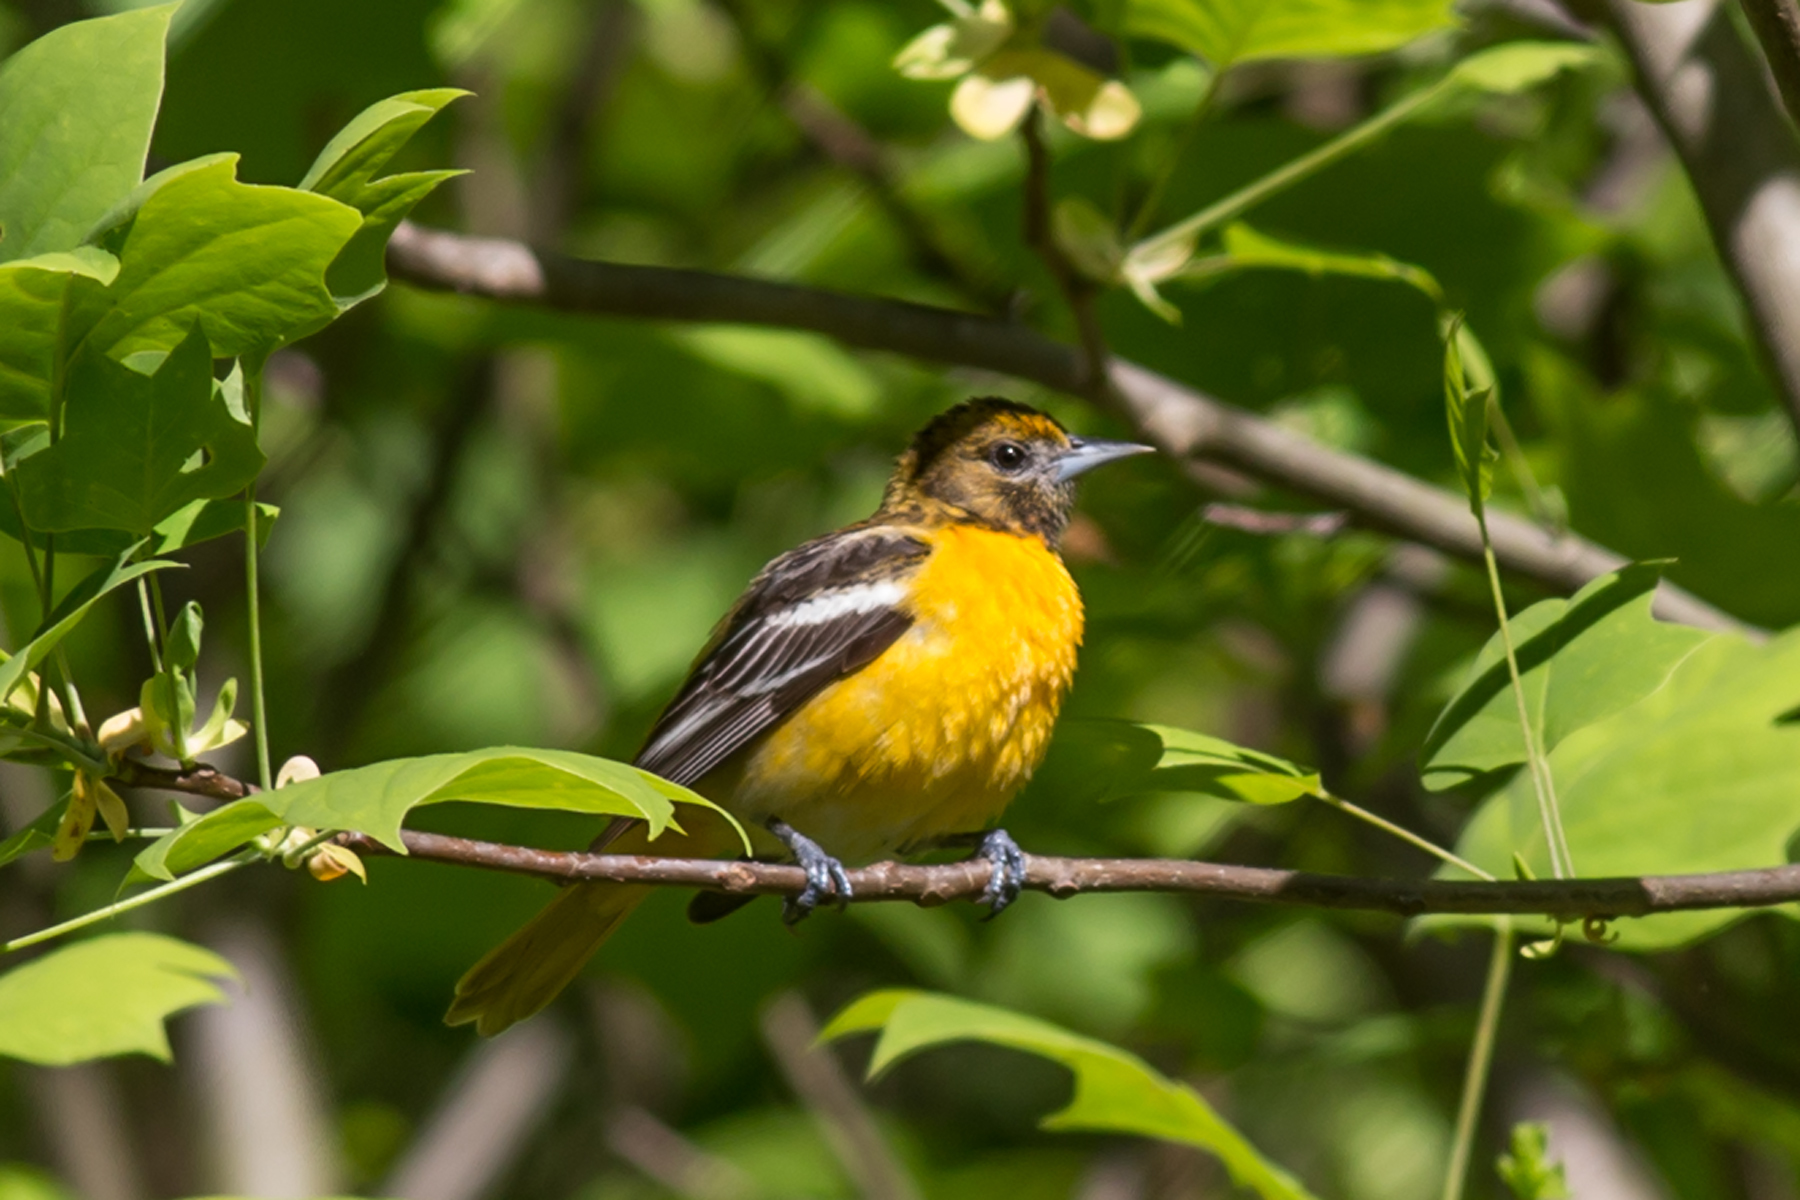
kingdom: Animalia
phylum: Chordata
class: Aves
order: Passeriformes
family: Icteridae
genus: Icterus
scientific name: Icterus galbula
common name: Baltimore oriole
